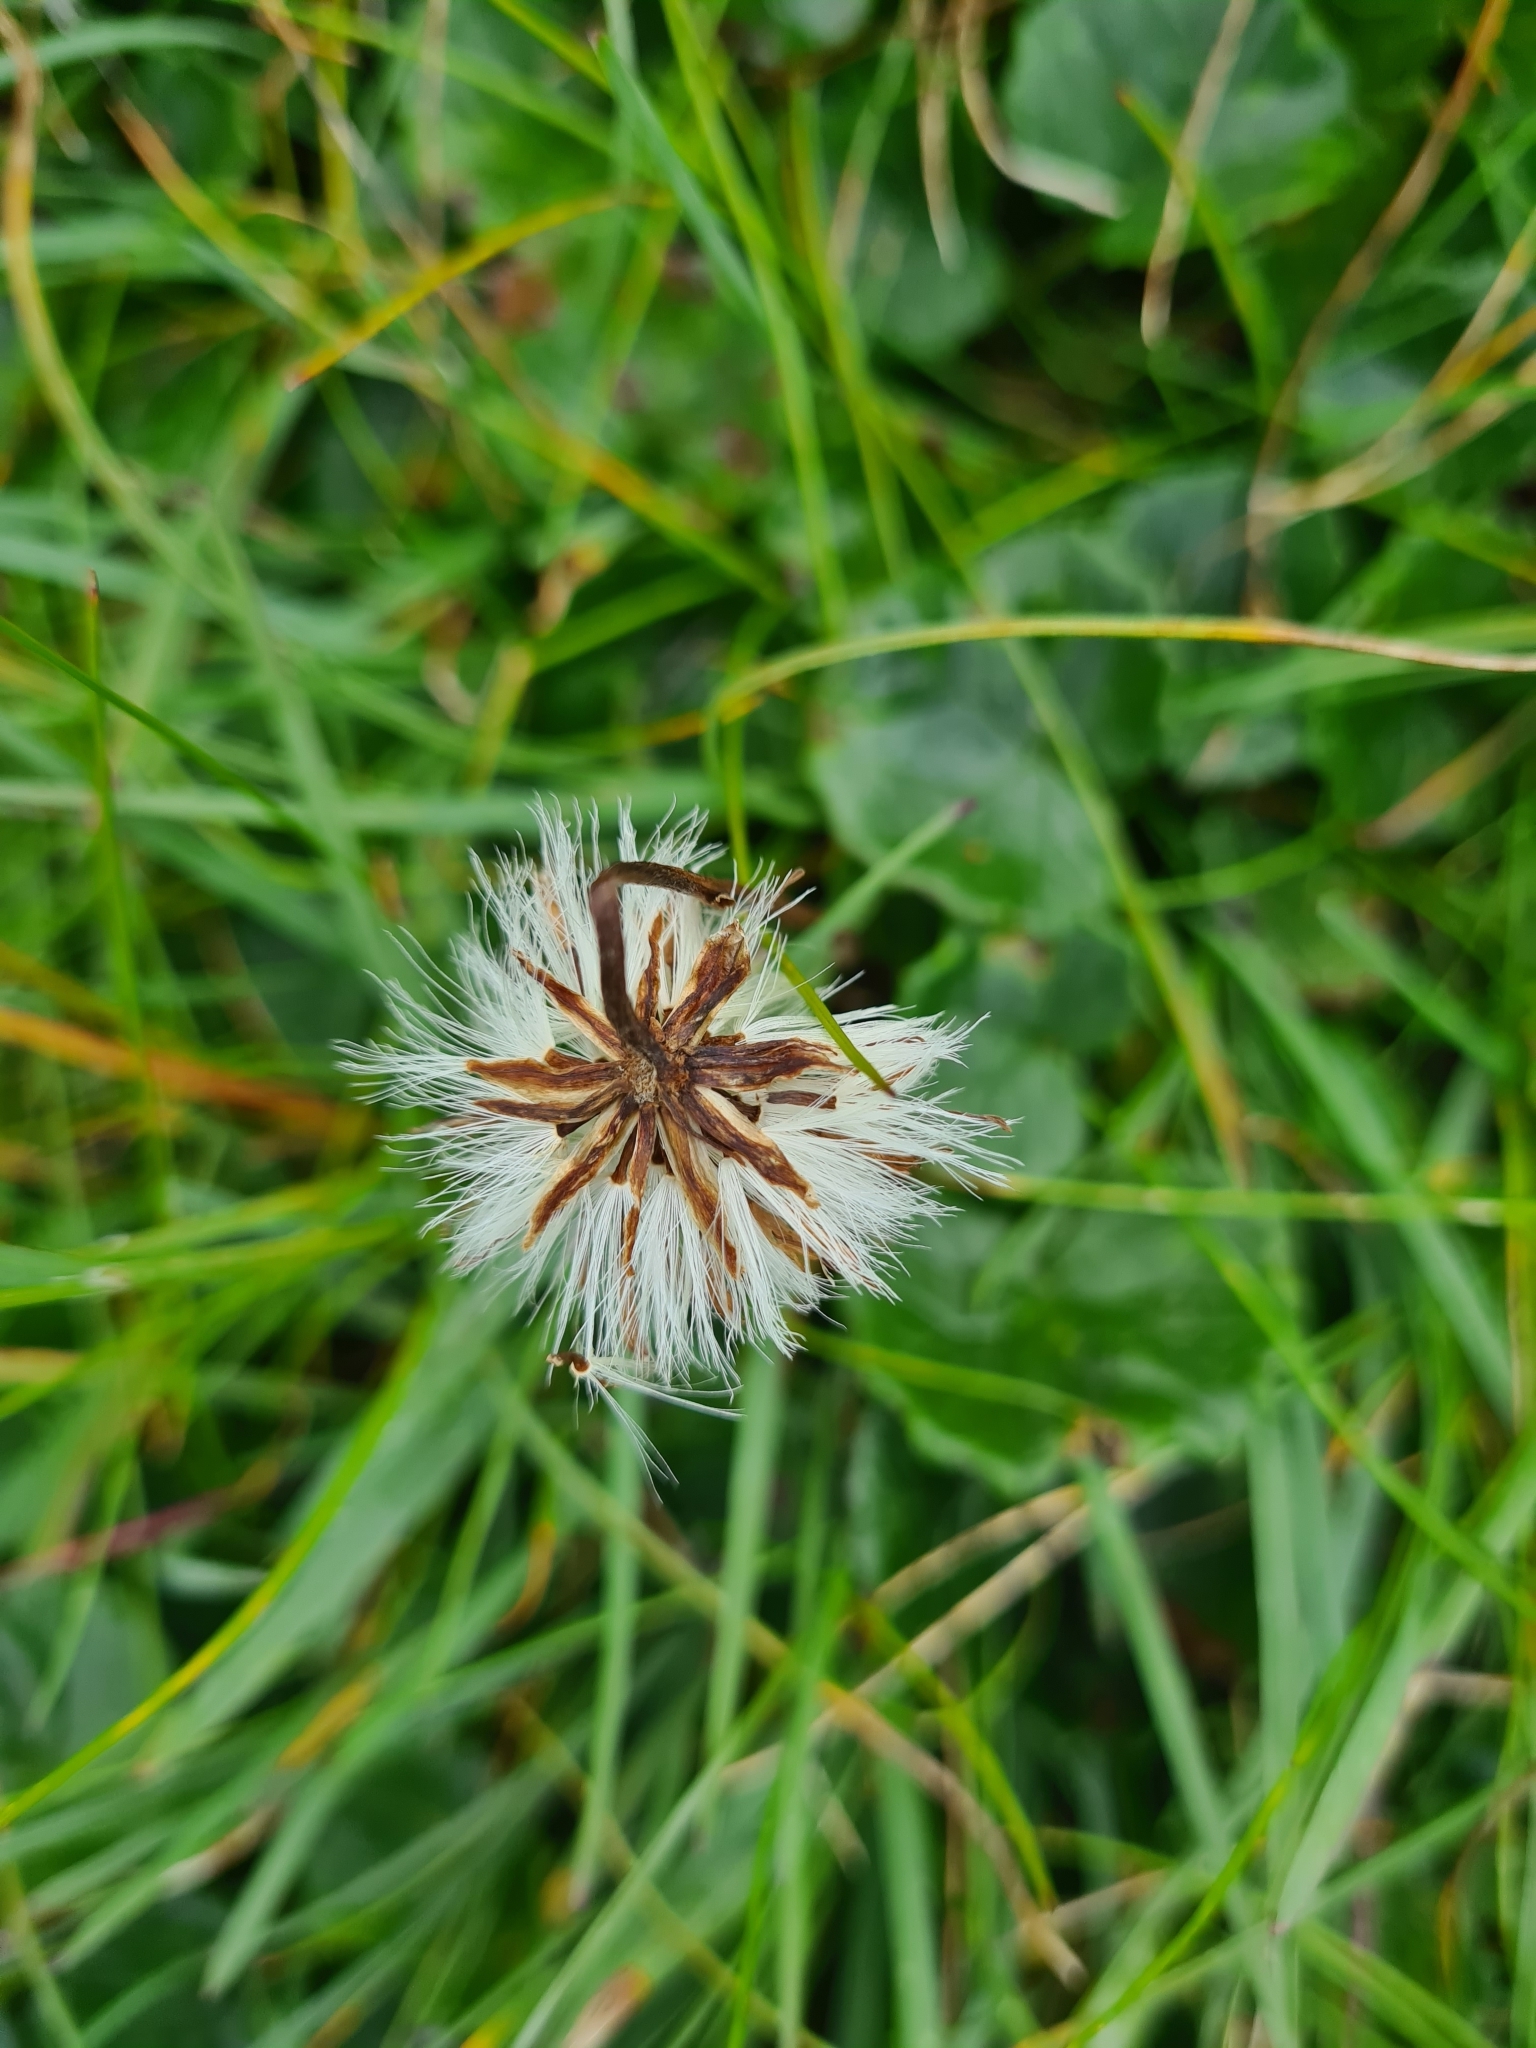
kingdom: Plantae
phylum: Tracheophyta
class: Magnoliopsida
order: Asterales
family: Asteraceae
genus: Homogyne
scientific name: Homogyne alpina
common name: Purple colt's-foot
